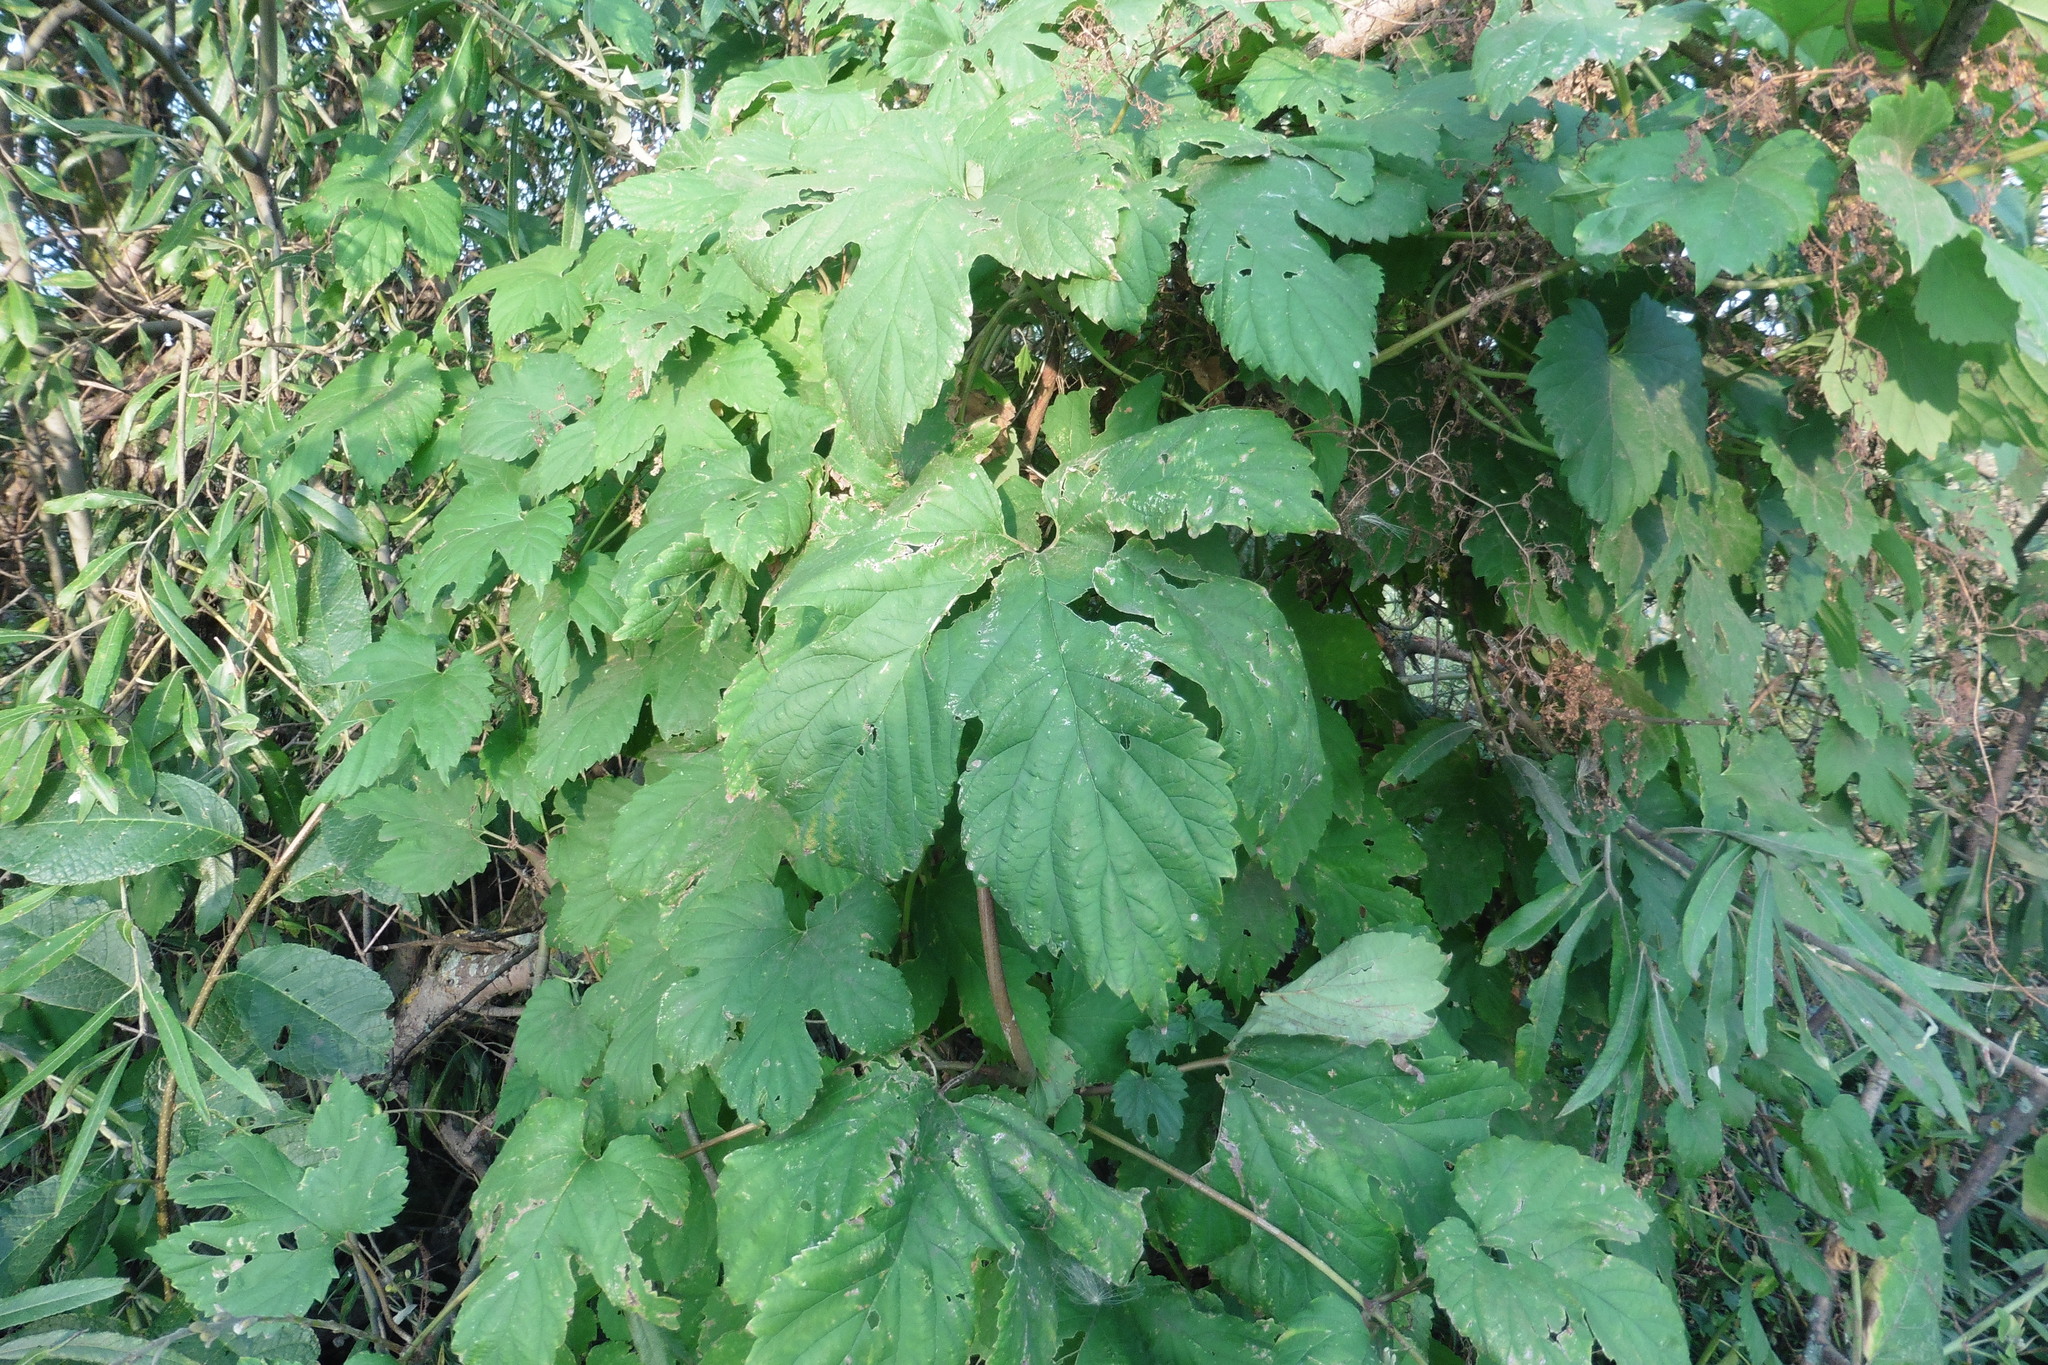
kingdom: Plantae
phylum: Tracheophyta
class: Magnoliopsida
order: Rosales
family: Cannabaceae
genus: Humulus
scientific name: Humulus lupulus
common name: Hop
